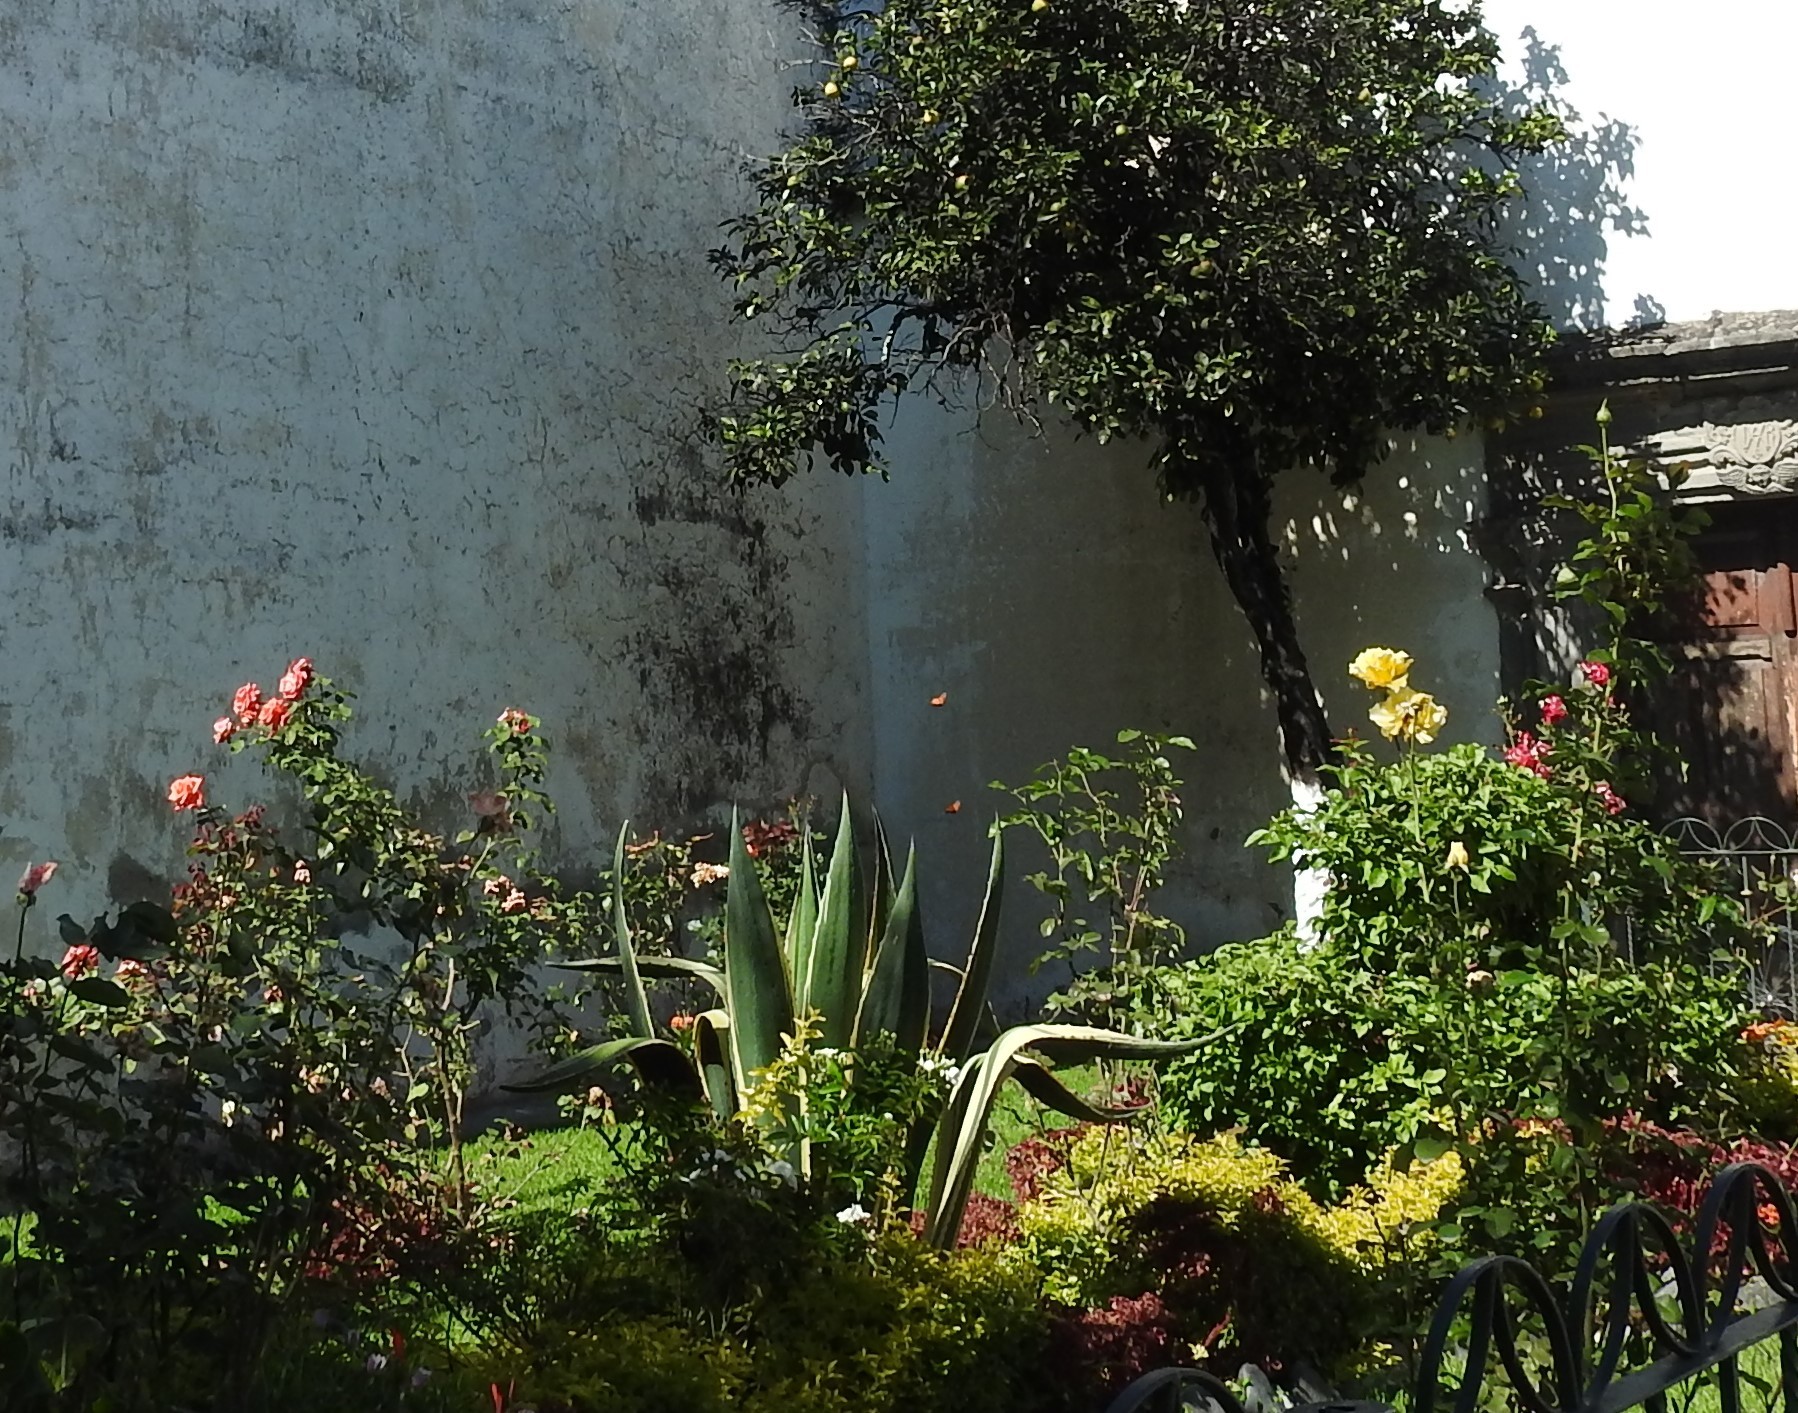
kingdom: Animalia
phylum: Arthropoda
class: Insecta
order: Lepidoptera
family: Nymphalidae
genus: Danaus
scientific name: Danaus plexippus
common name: Monarch
